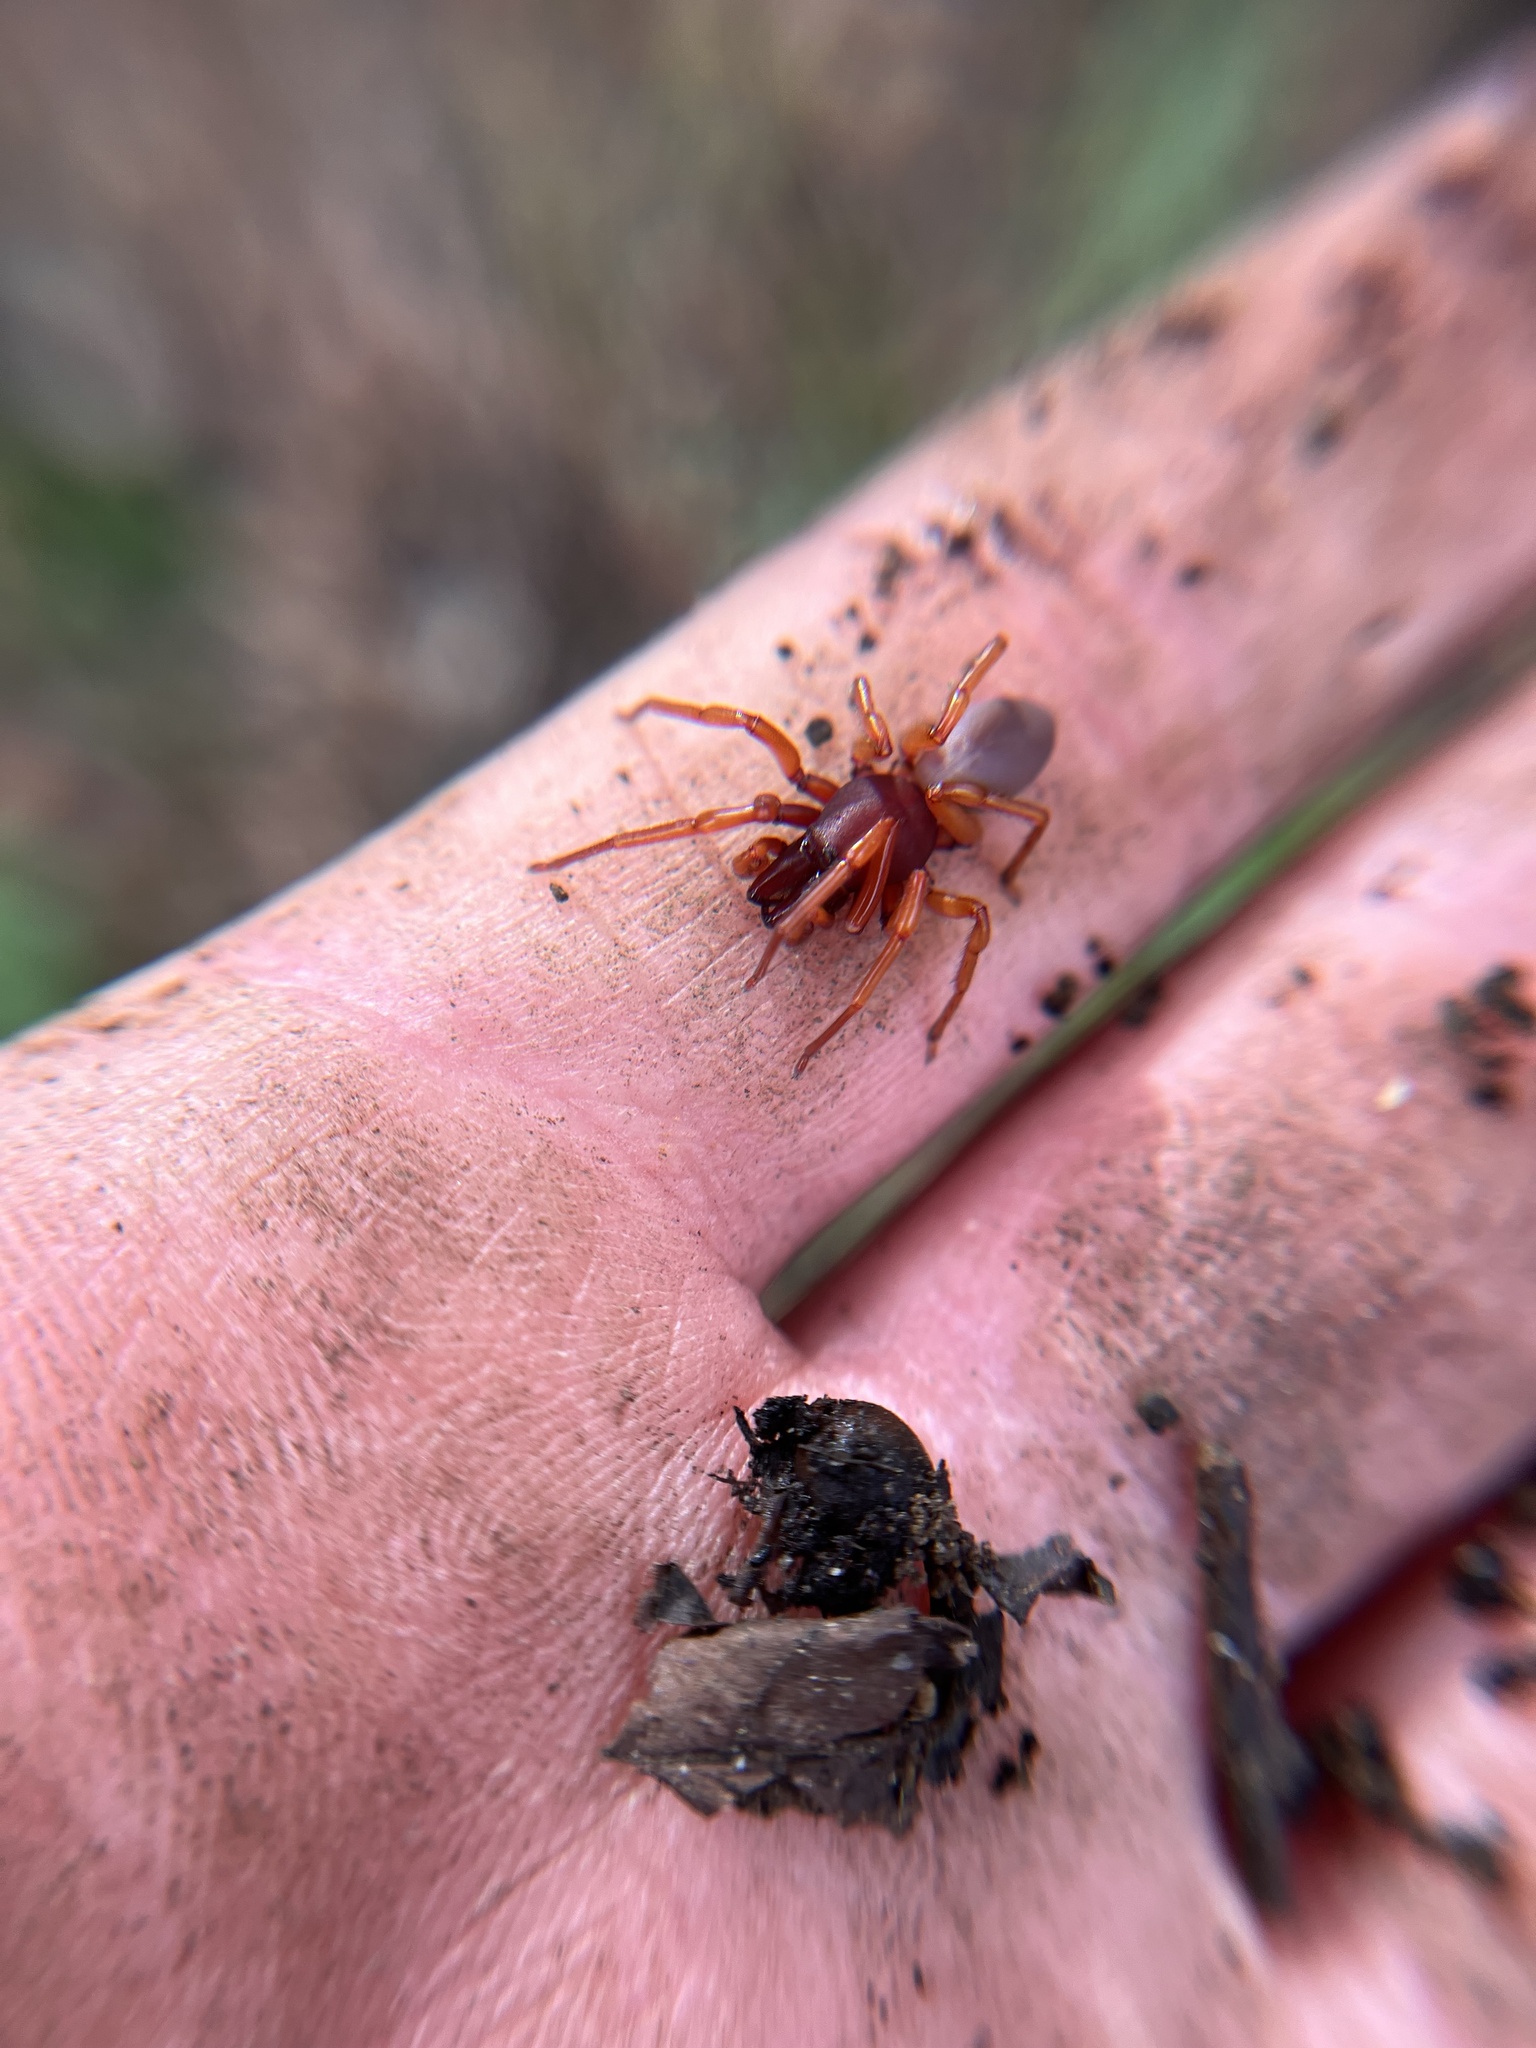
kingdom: Animalia
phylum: Arthropoda
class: Arachnida
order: Araneae
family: Dysderidae
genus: Dysdera
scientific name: Dysdera crocata
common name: Woodlouse spider
